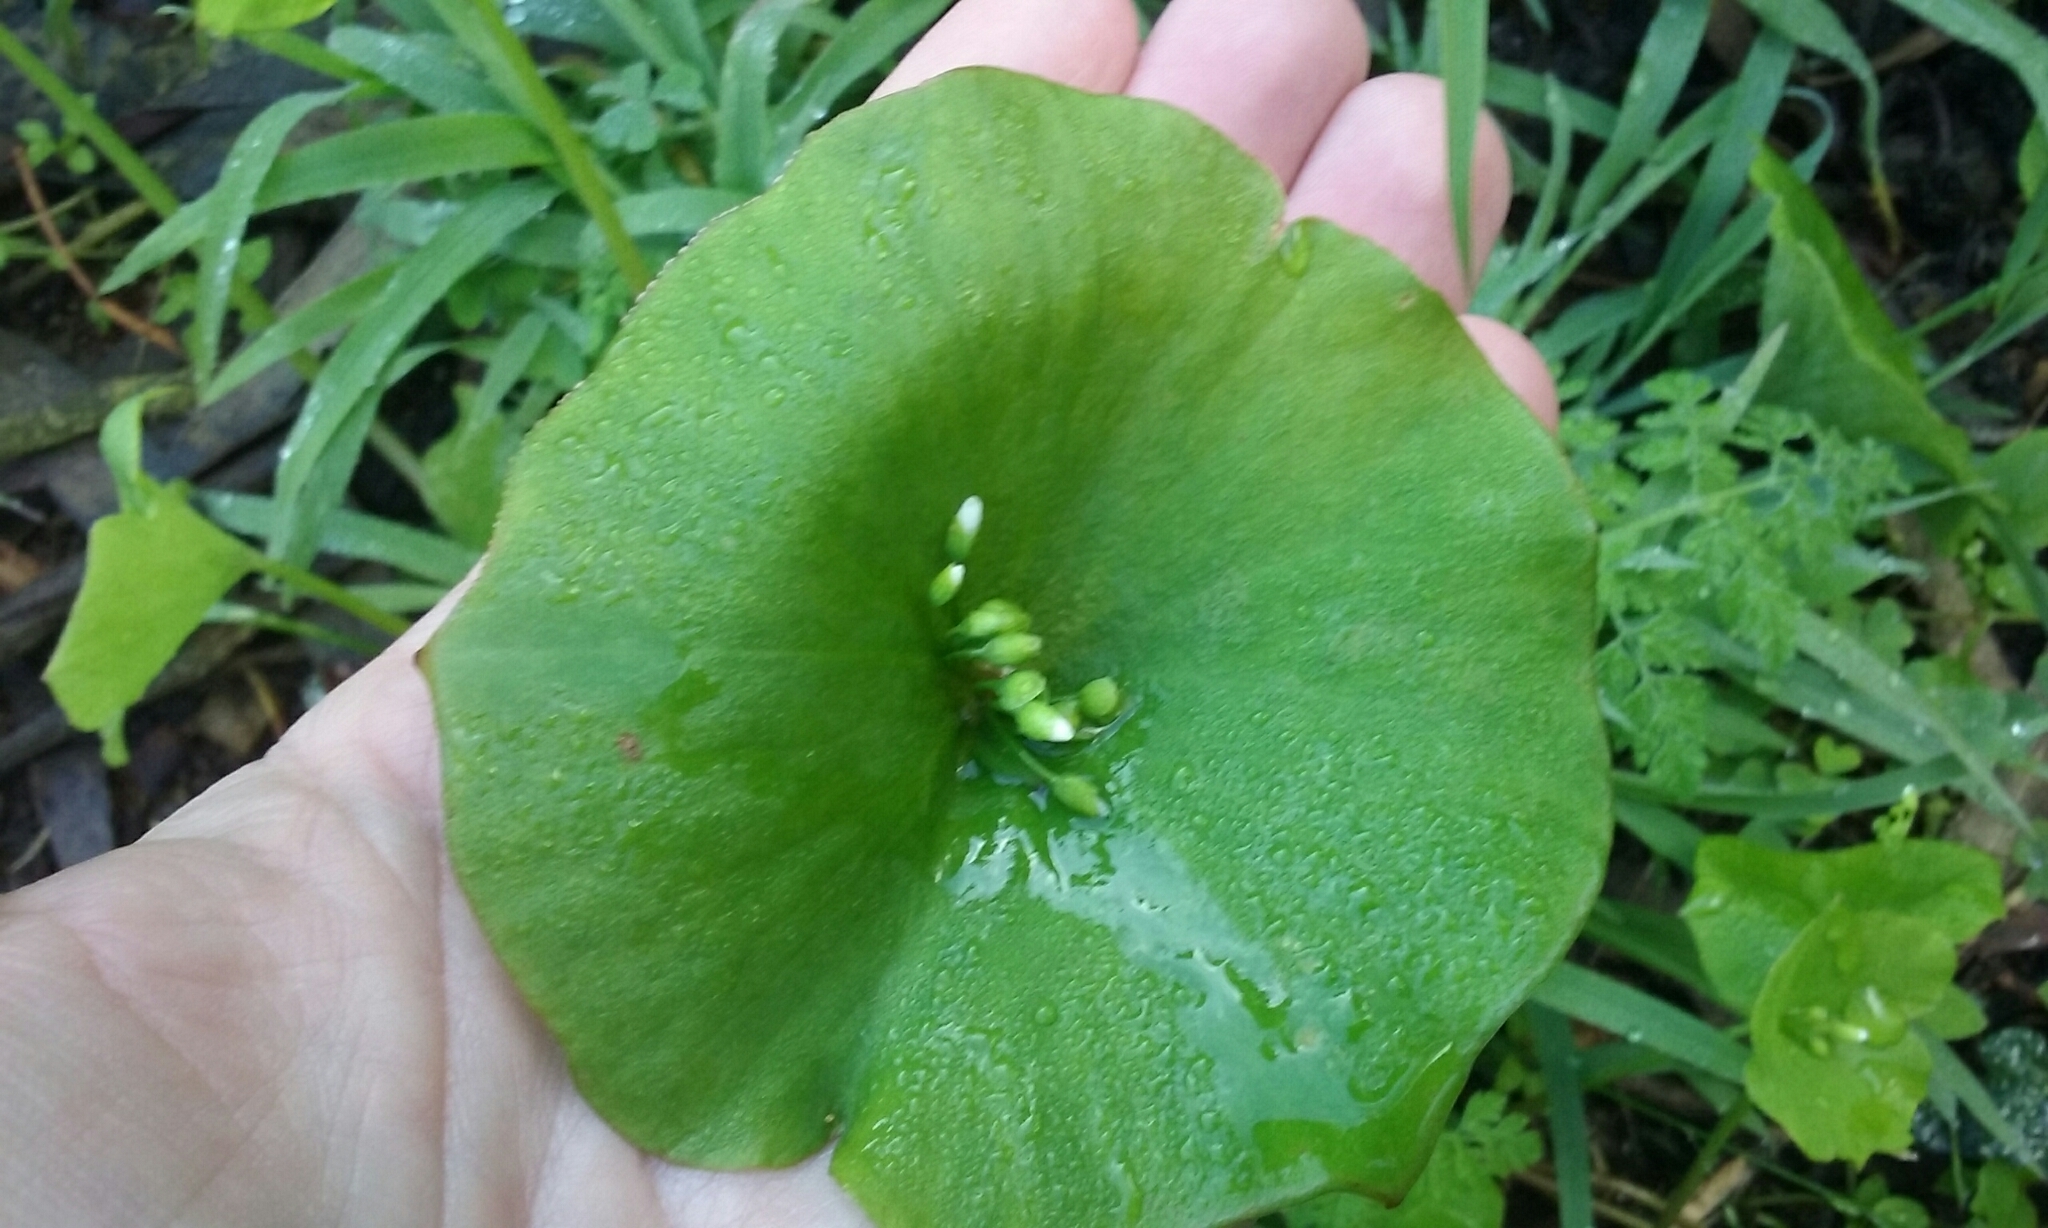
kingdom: Plantae
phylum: Tracheophyta
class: Magnoliopsida
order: Caryophyllales
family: Montiaceae
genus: Claytonia
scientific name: Claytonia perfoliata
